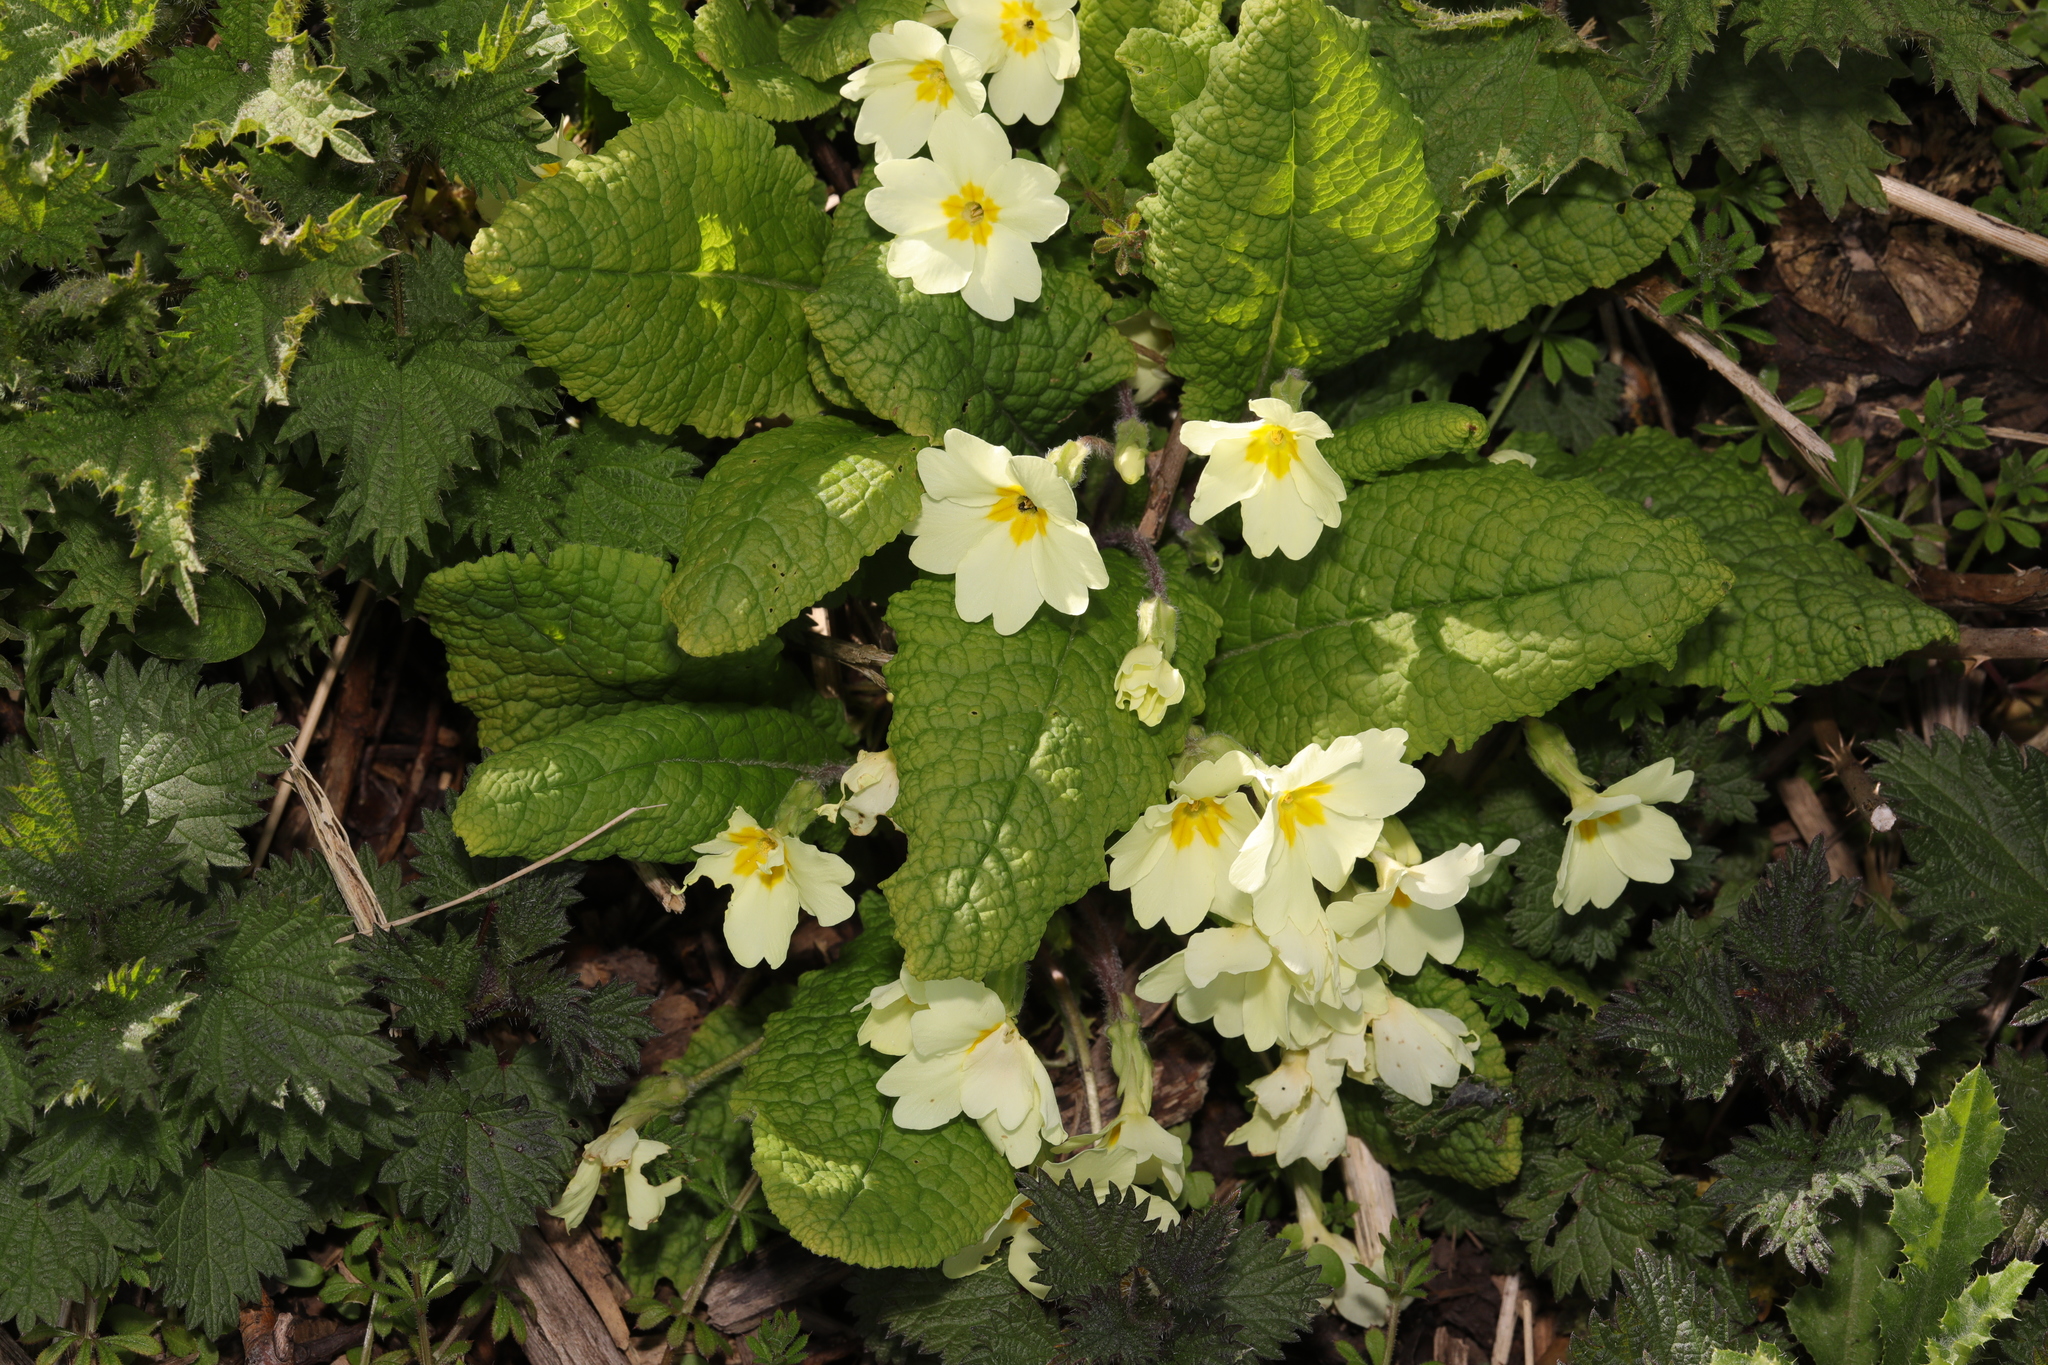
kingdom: Plantae
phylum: Tracheophyta
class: Magnoliopsida
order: Ericales
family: Primulaceae
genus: Primula
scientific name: Primula vulgaris
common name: Primrose
